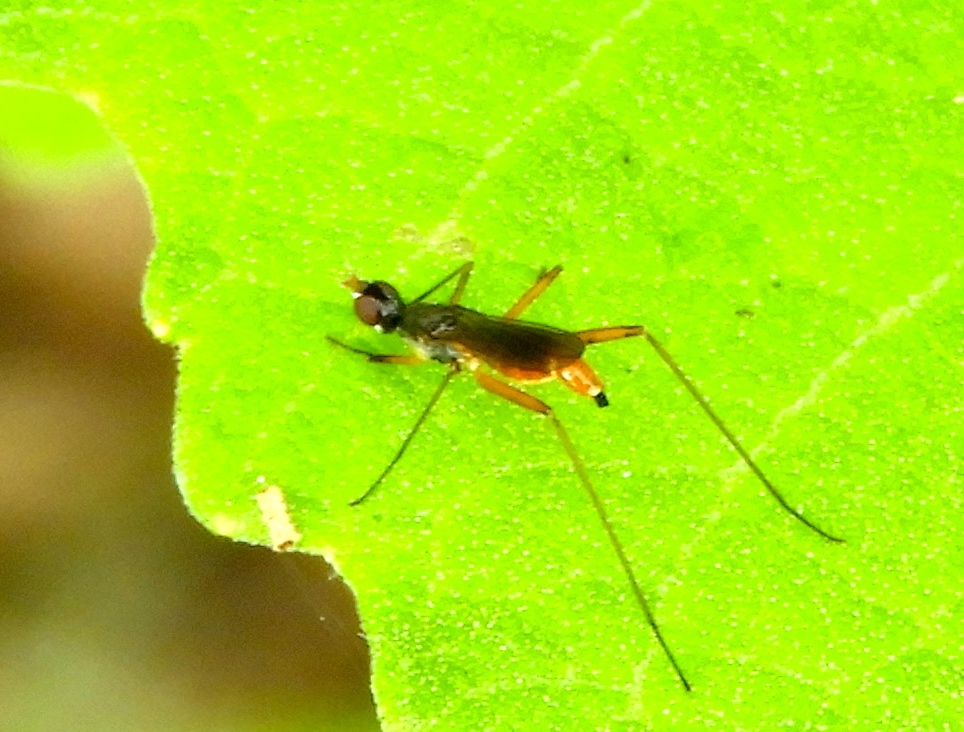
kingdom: Animalia
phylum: Arthropoda
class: Insecta
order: Diptera
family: Micropezidae
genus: Micropeza
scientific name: Micropeza
